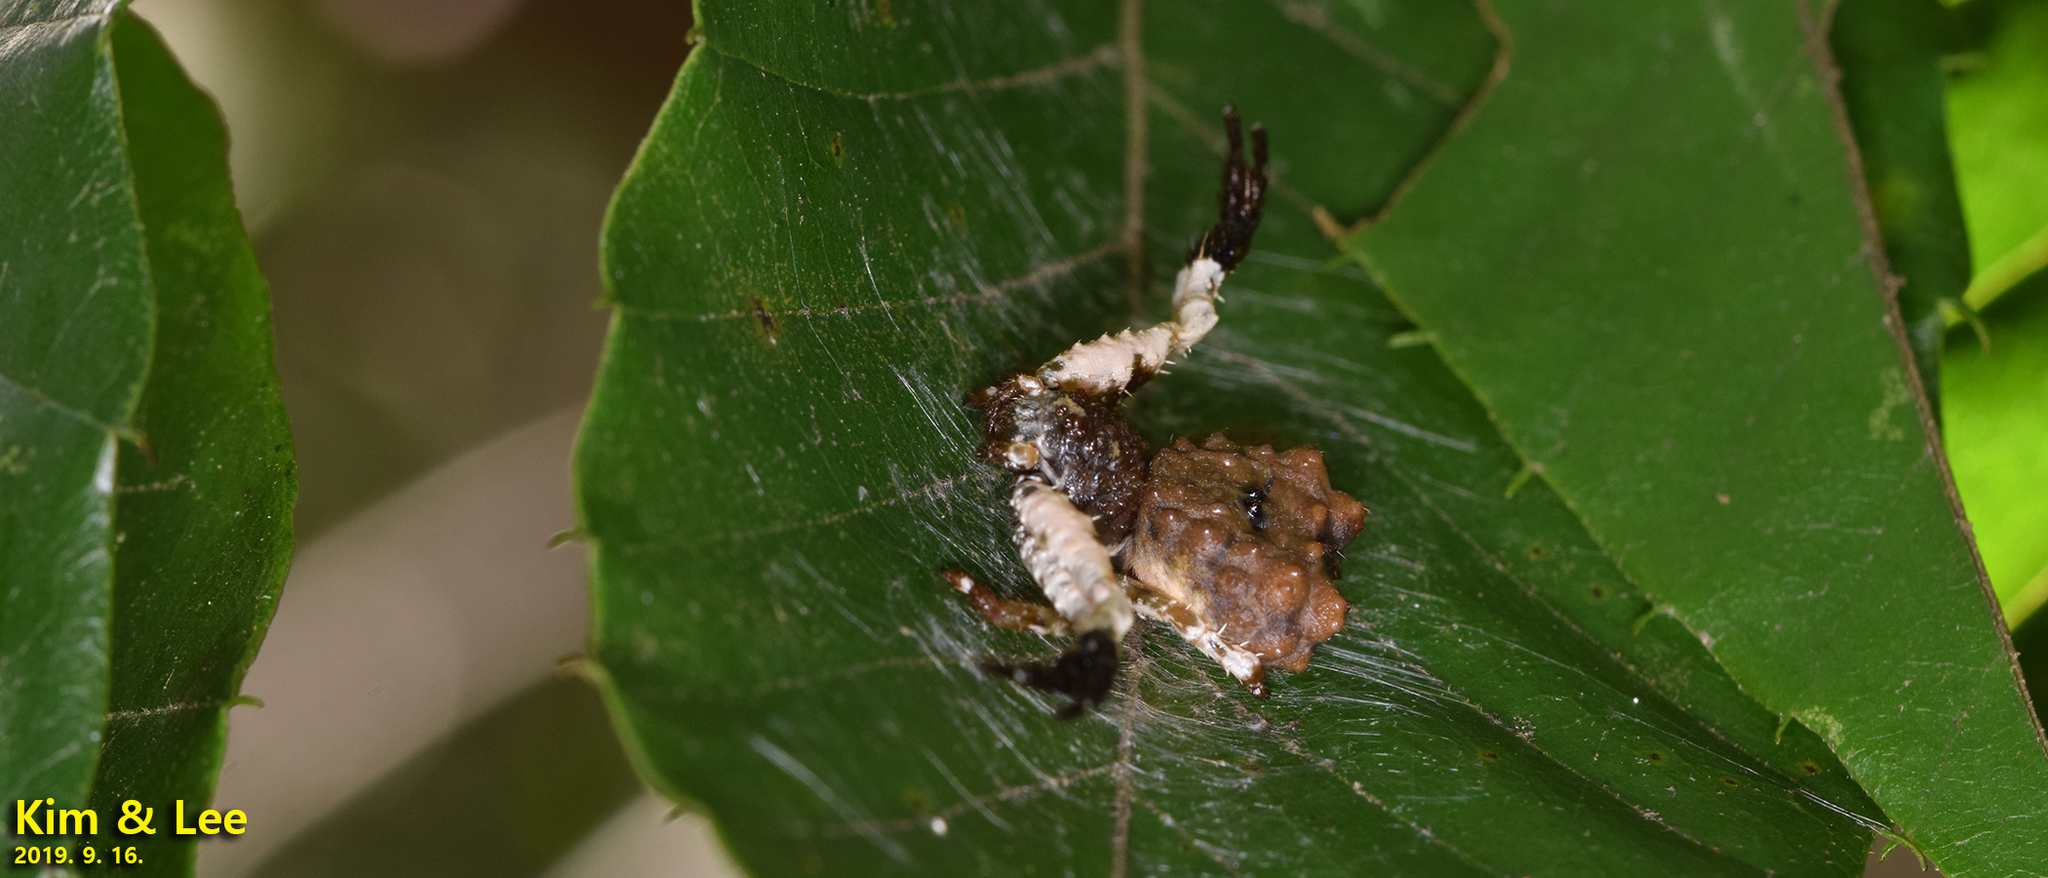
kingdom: Animalia
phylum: Arthropoda
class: Arachnida
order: Araneae
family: Thomisidae
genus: Phrynarachne
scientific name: Phrynarachne katoi
